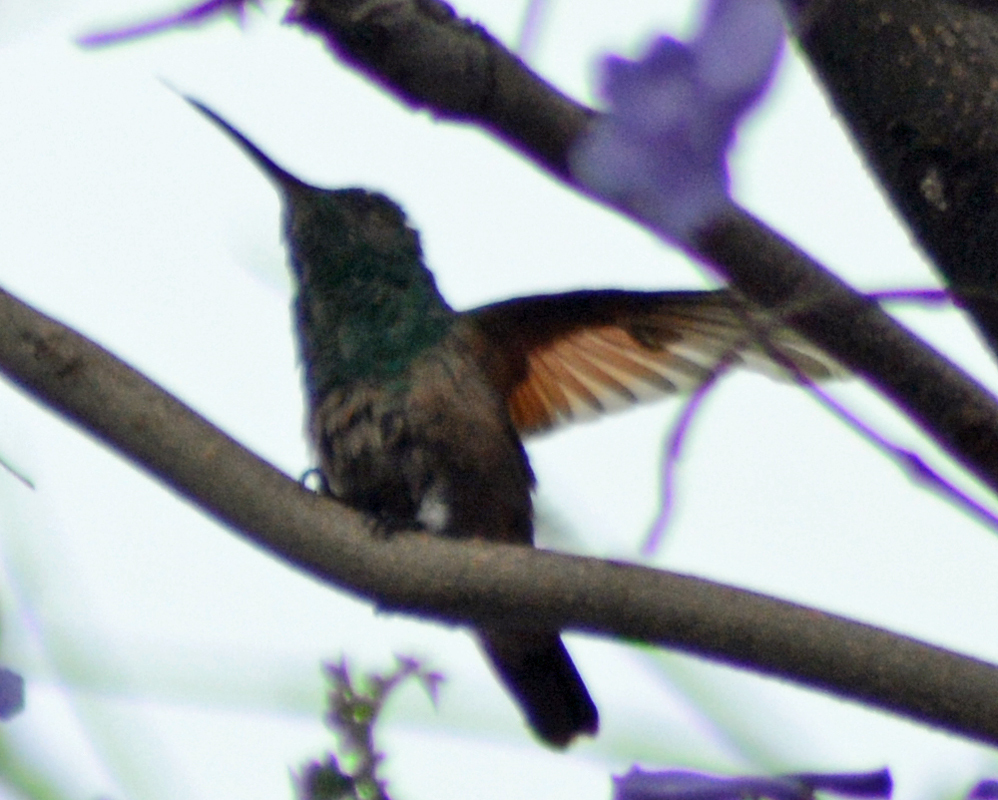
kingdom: Animalia
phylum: Chordata
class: Aves
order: Apodiformes
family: Trochilidae
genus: Saucerottia
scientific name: Saucerottia beryllina
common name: Berylline hummingbird
